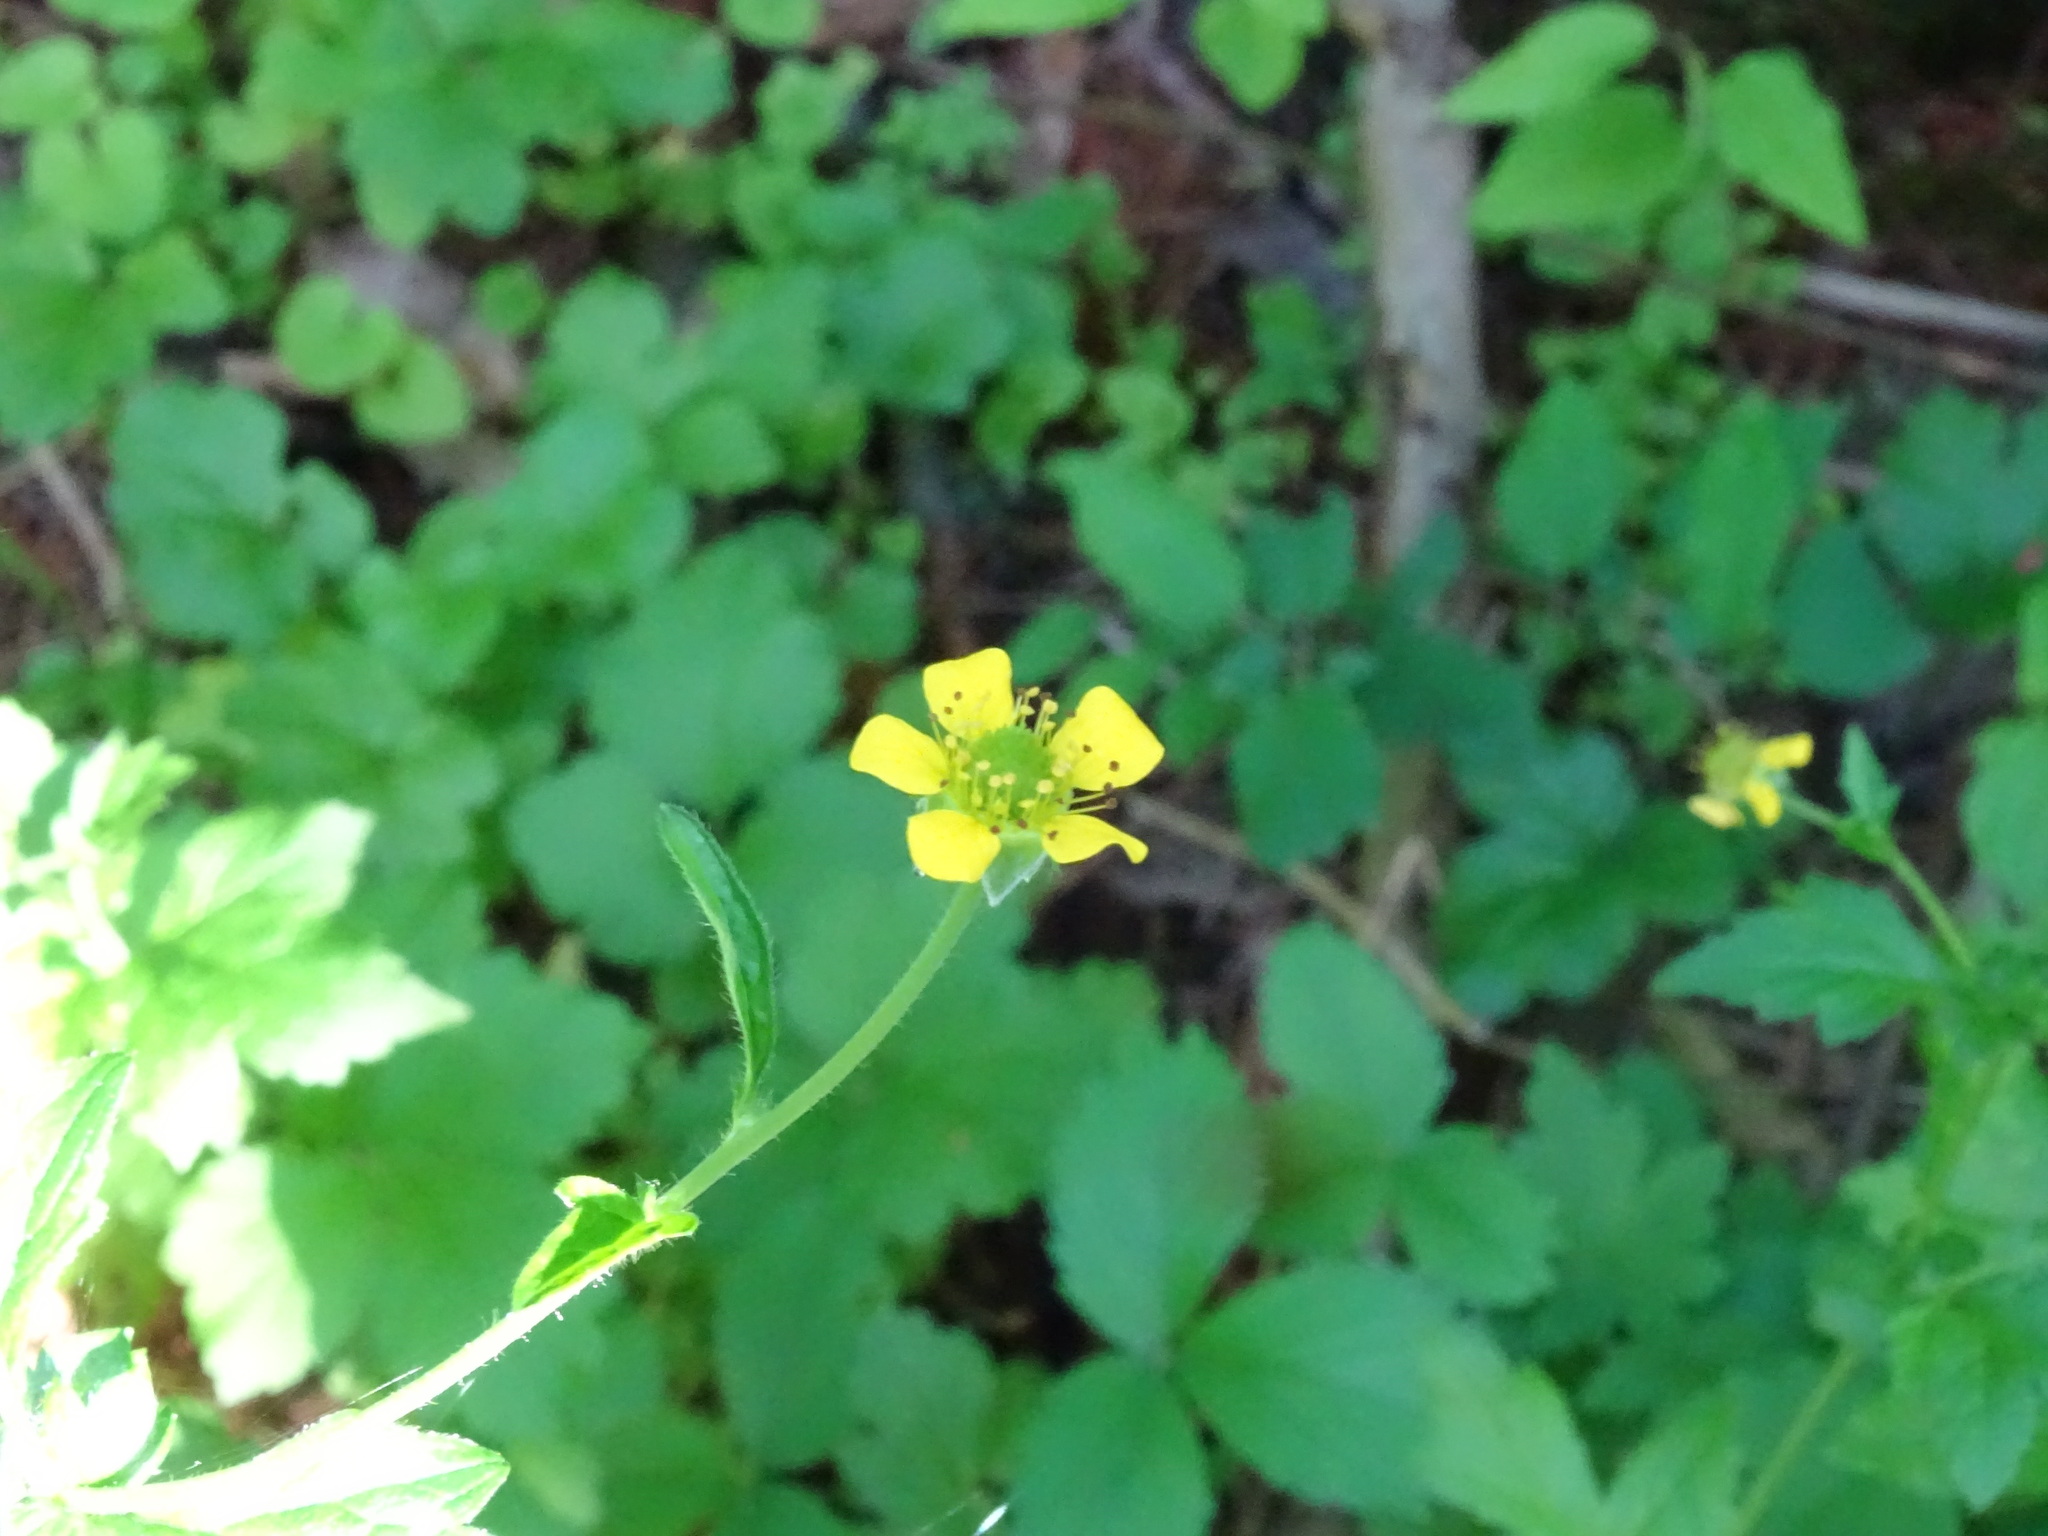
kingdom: Plantae
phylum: Tracheophyta
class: Magnoliopsida
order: Rosales
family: Rosaceae
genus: Geum
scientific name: Geum urbanum
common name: Wood avens
